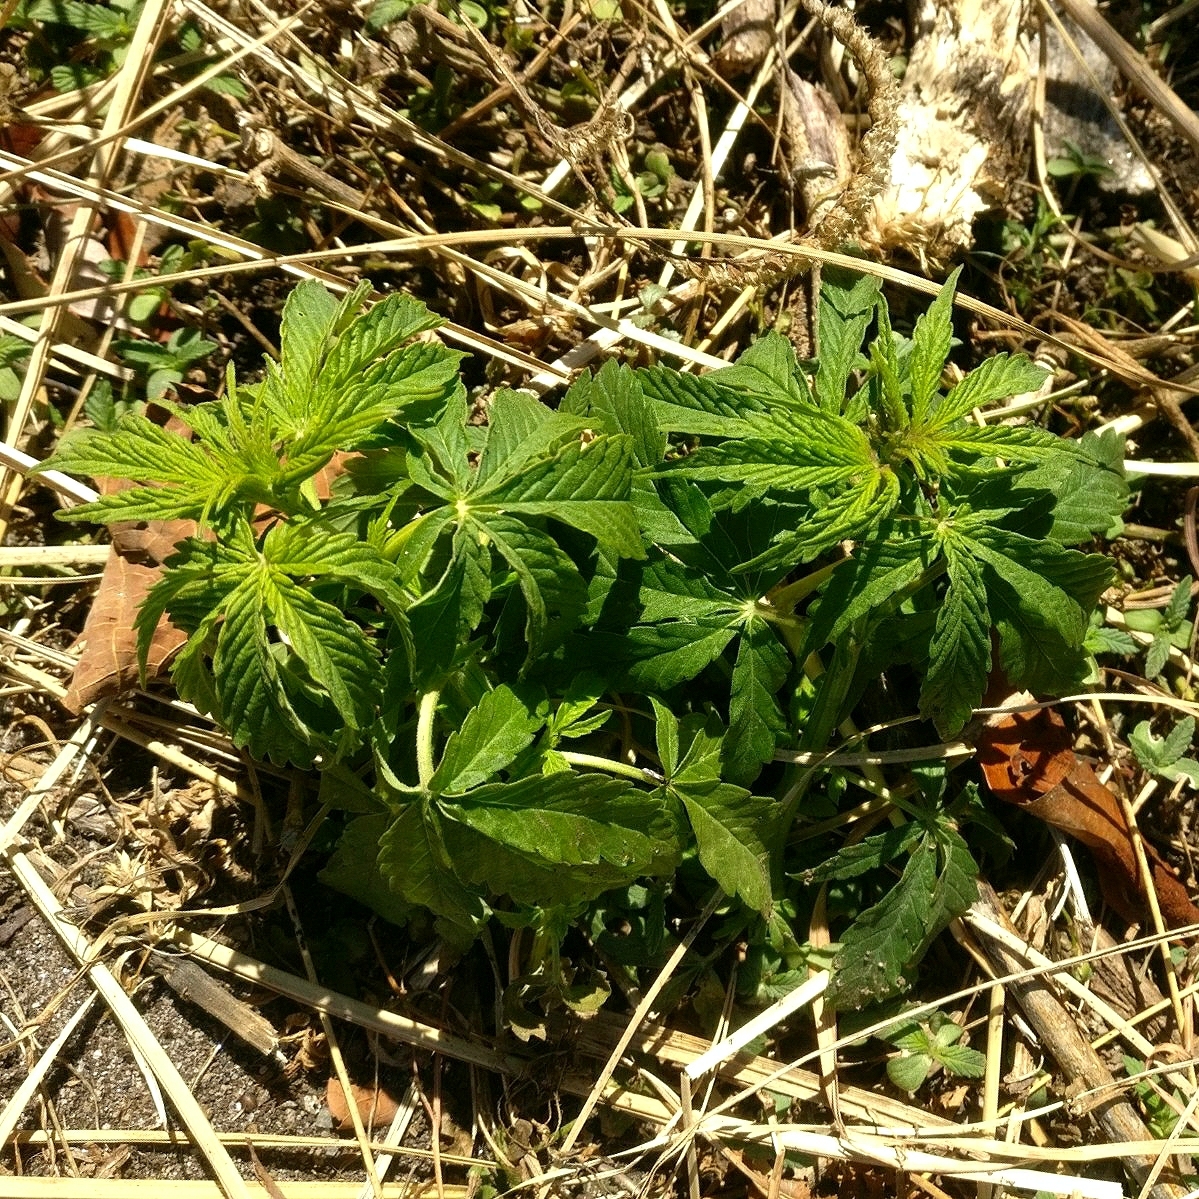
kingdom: Plantae
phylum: Tracheophyta
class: Magnoliopsida
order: Rosales
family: Cannabaceae
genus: Cannabis
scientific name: Cannabis sativa
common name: Hemp
